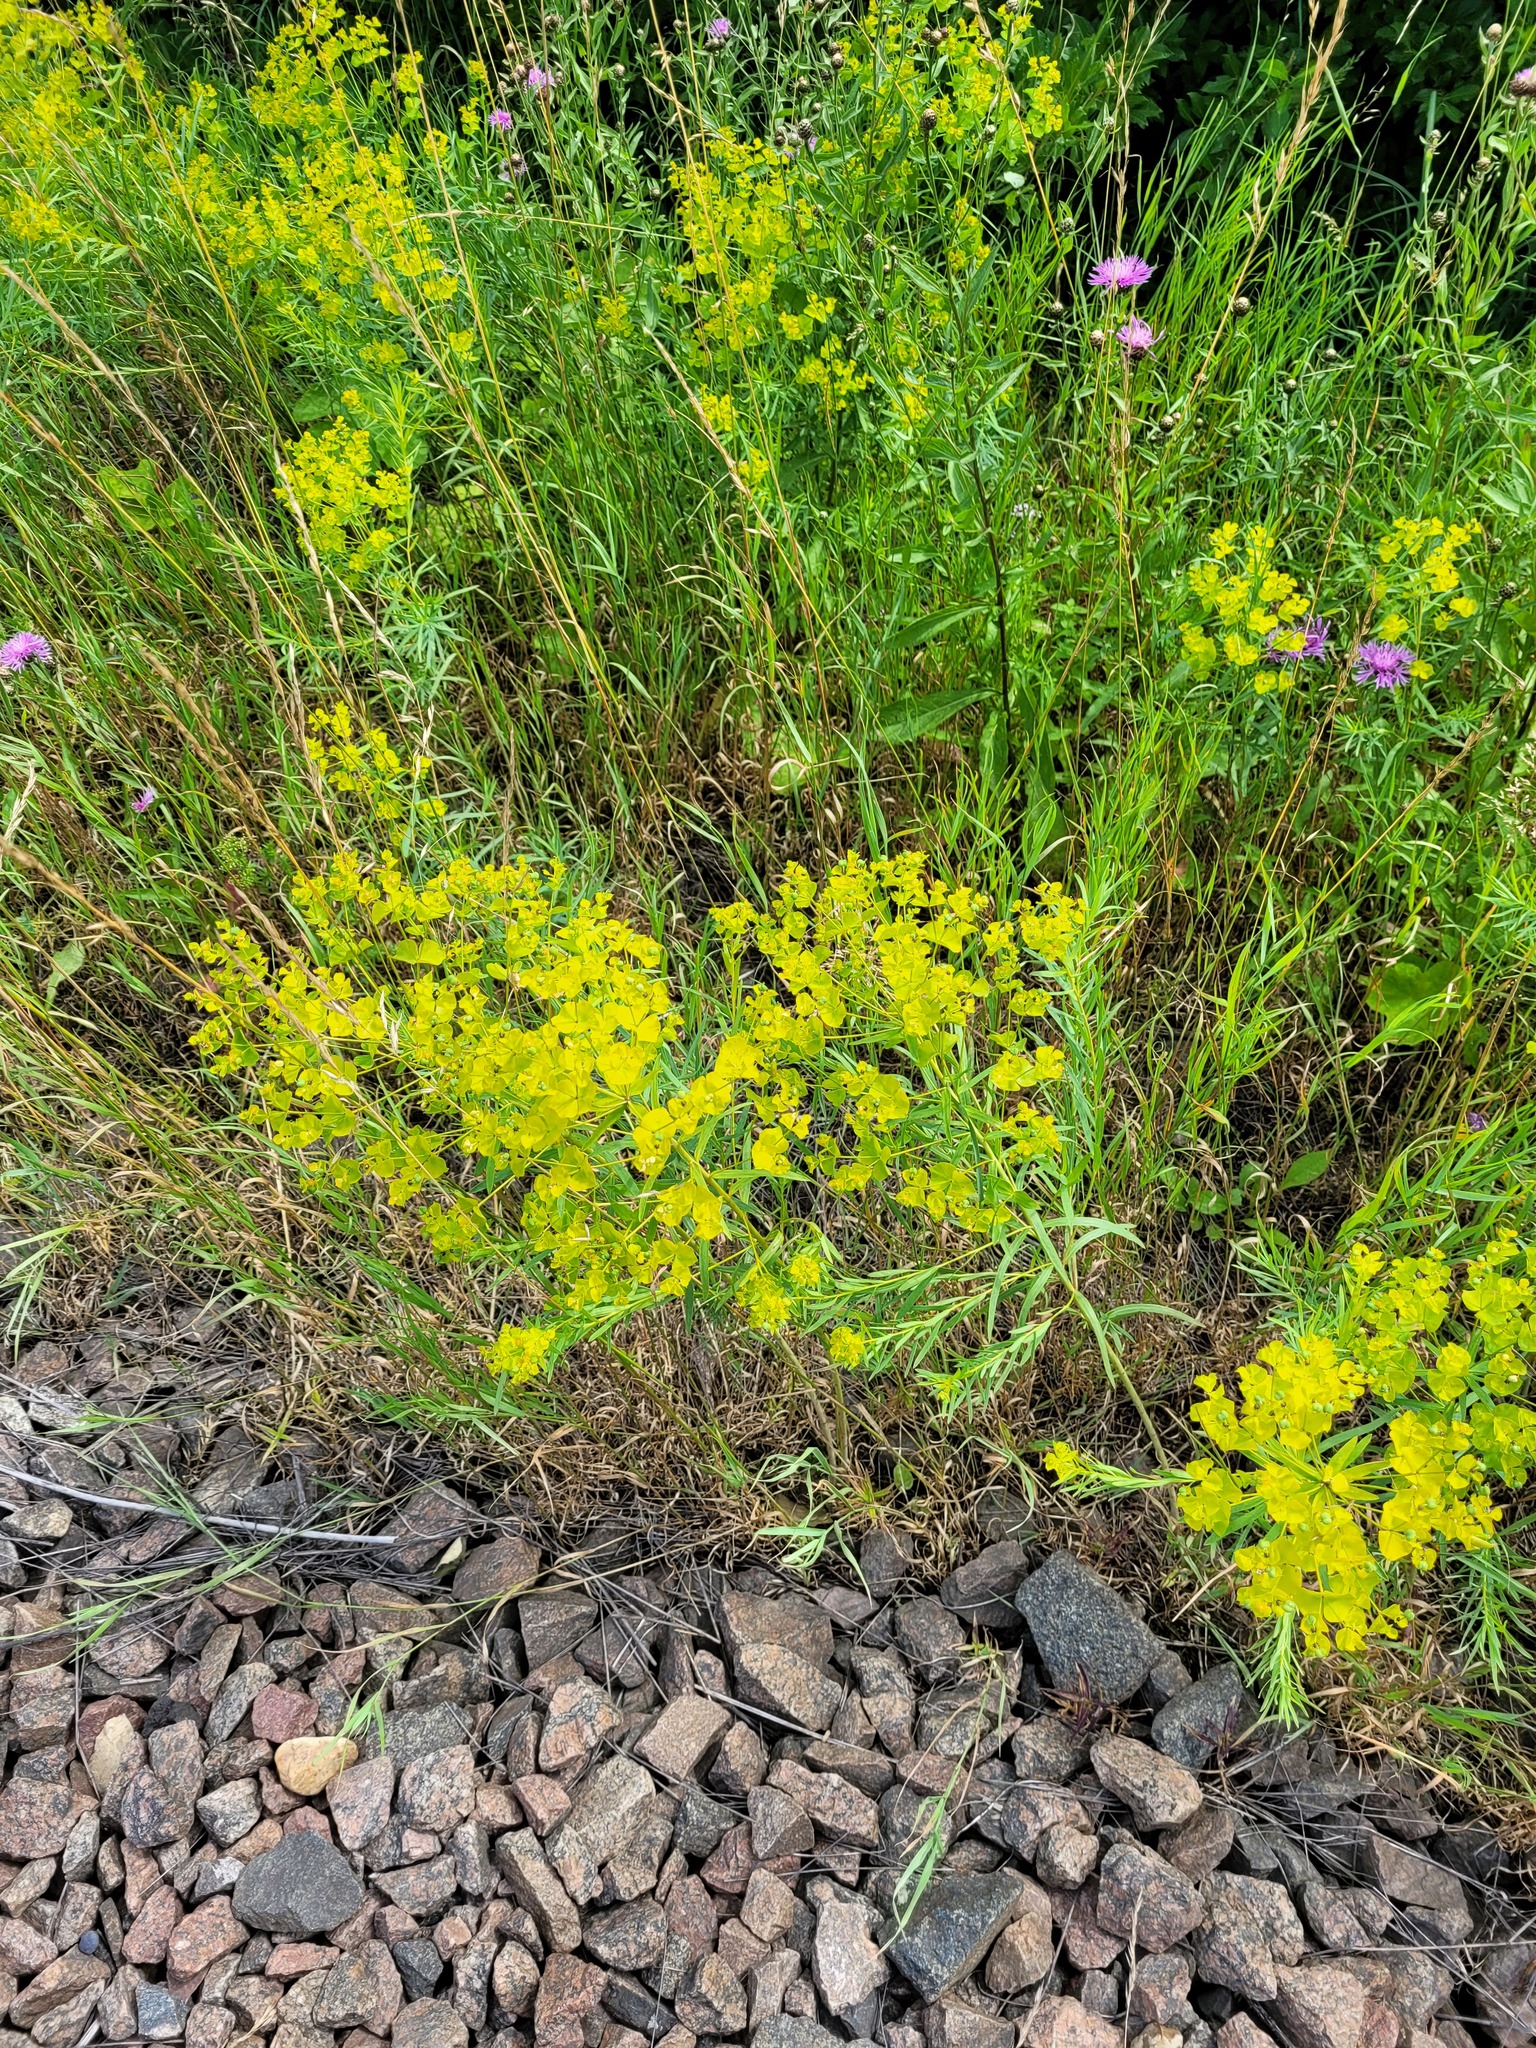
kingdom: Plantae
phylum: Tracheophyta
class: Magnoliopsida
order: Malpighiales
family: Euphorbiaceae
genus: Euphorbia
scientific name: Euphorbia virgata
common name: Leafy spurge
